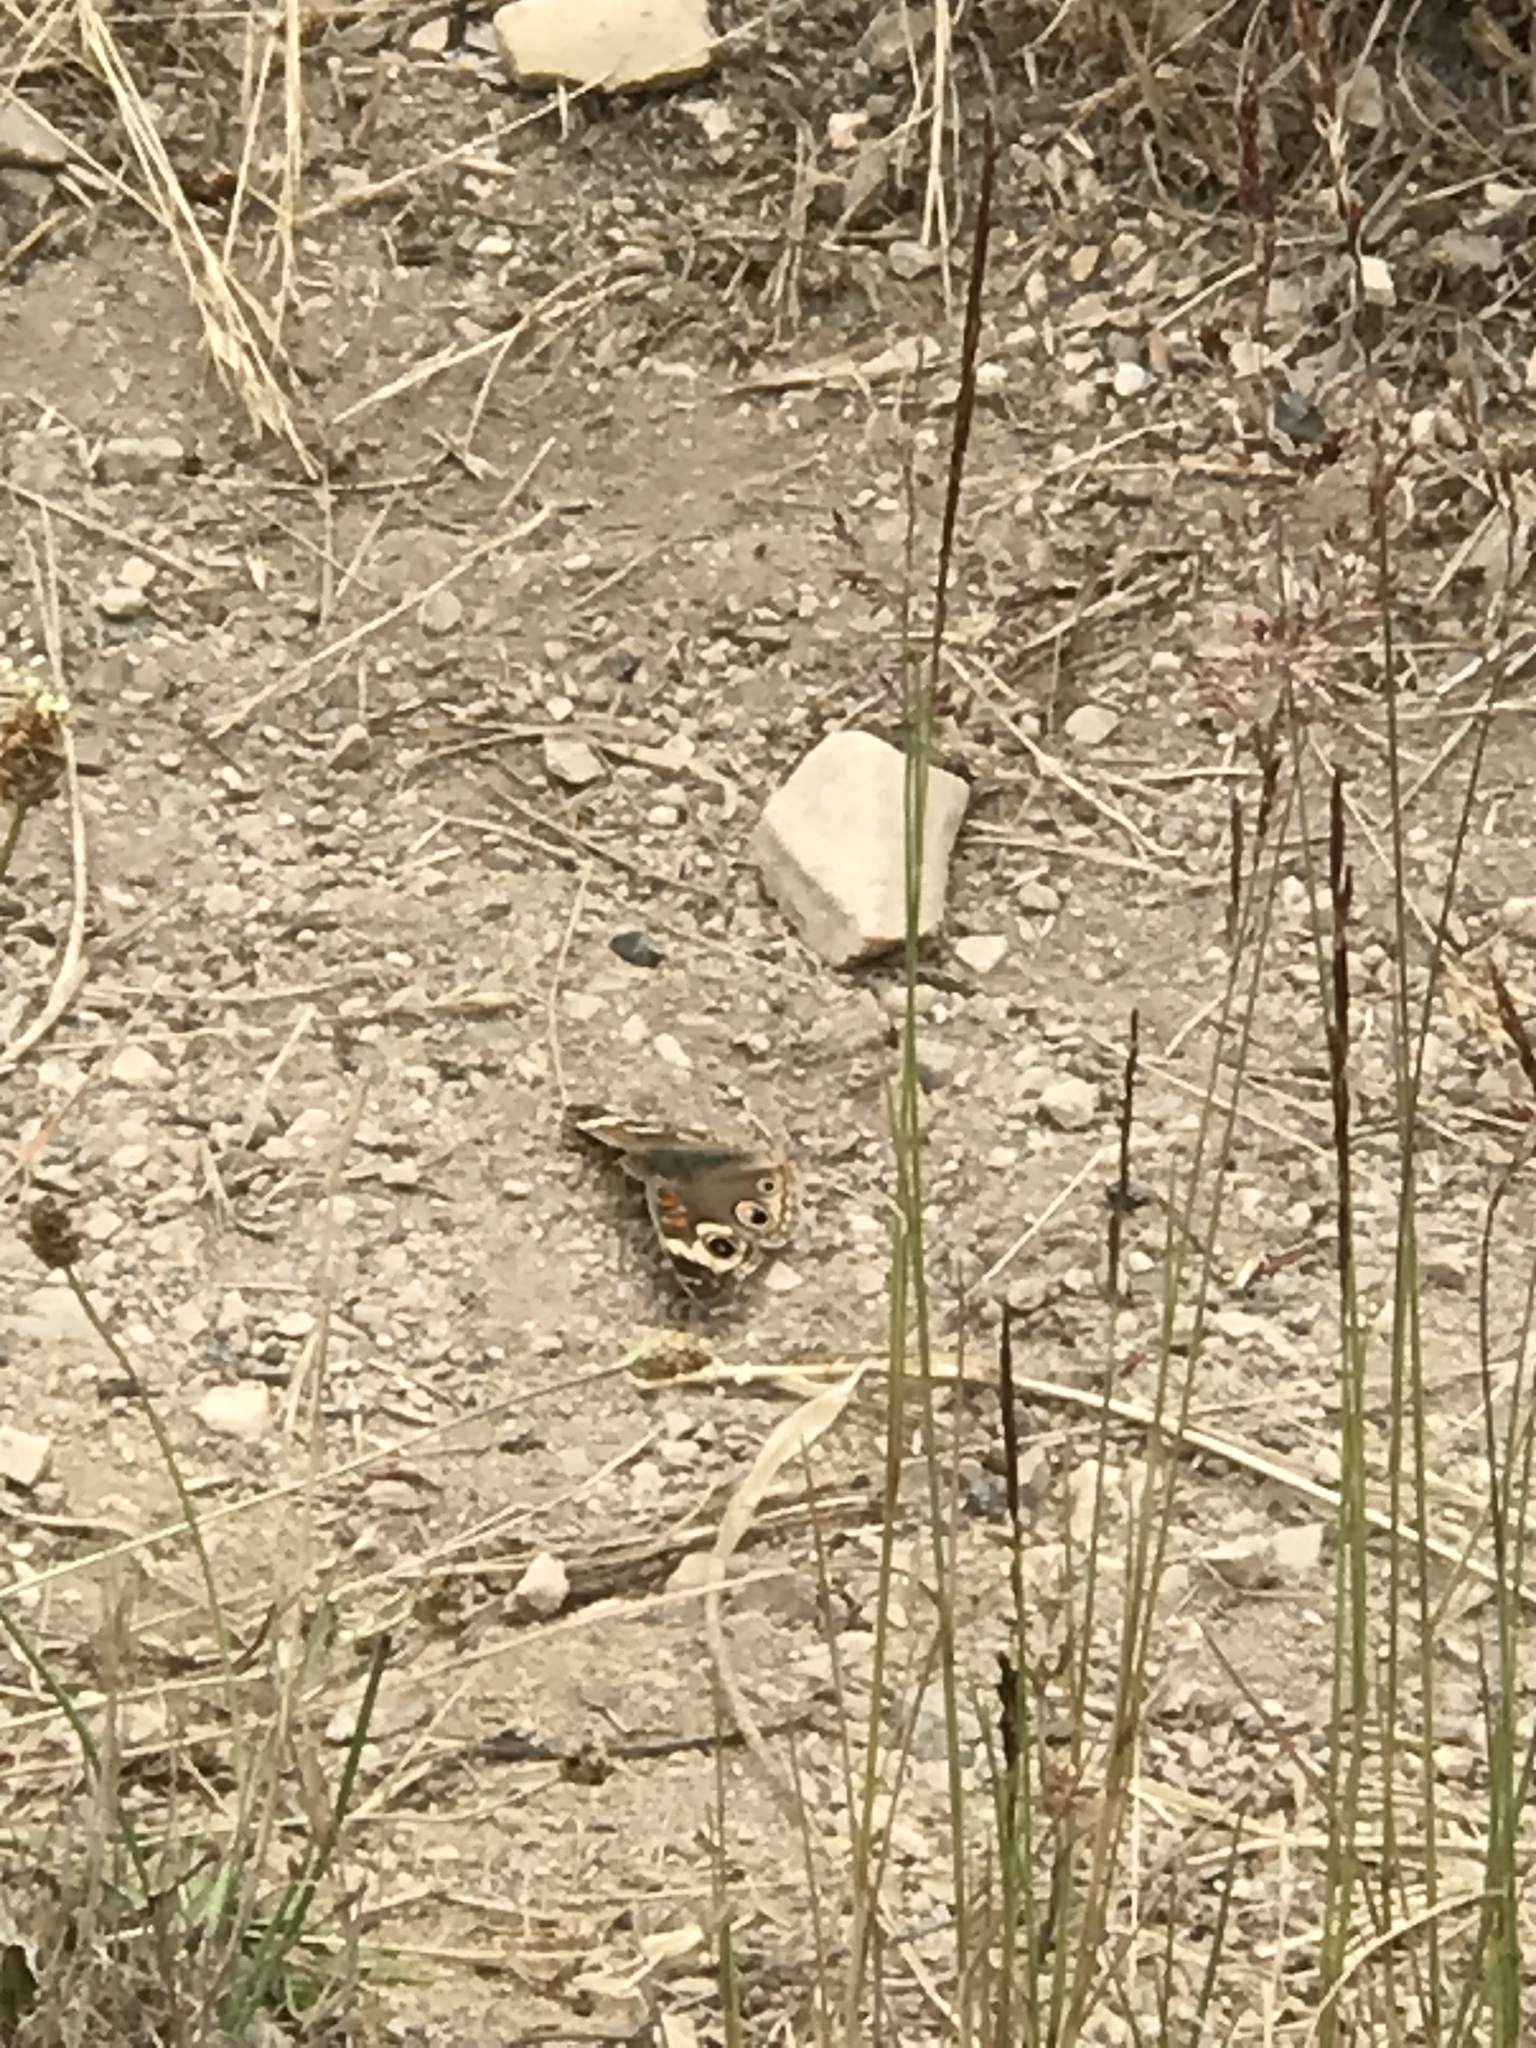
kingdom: Animalia
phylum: Arthropoda
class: Insecta
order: Lepidoptera
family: Nymphalidae
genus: Junonia
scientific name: Junonia grisea
